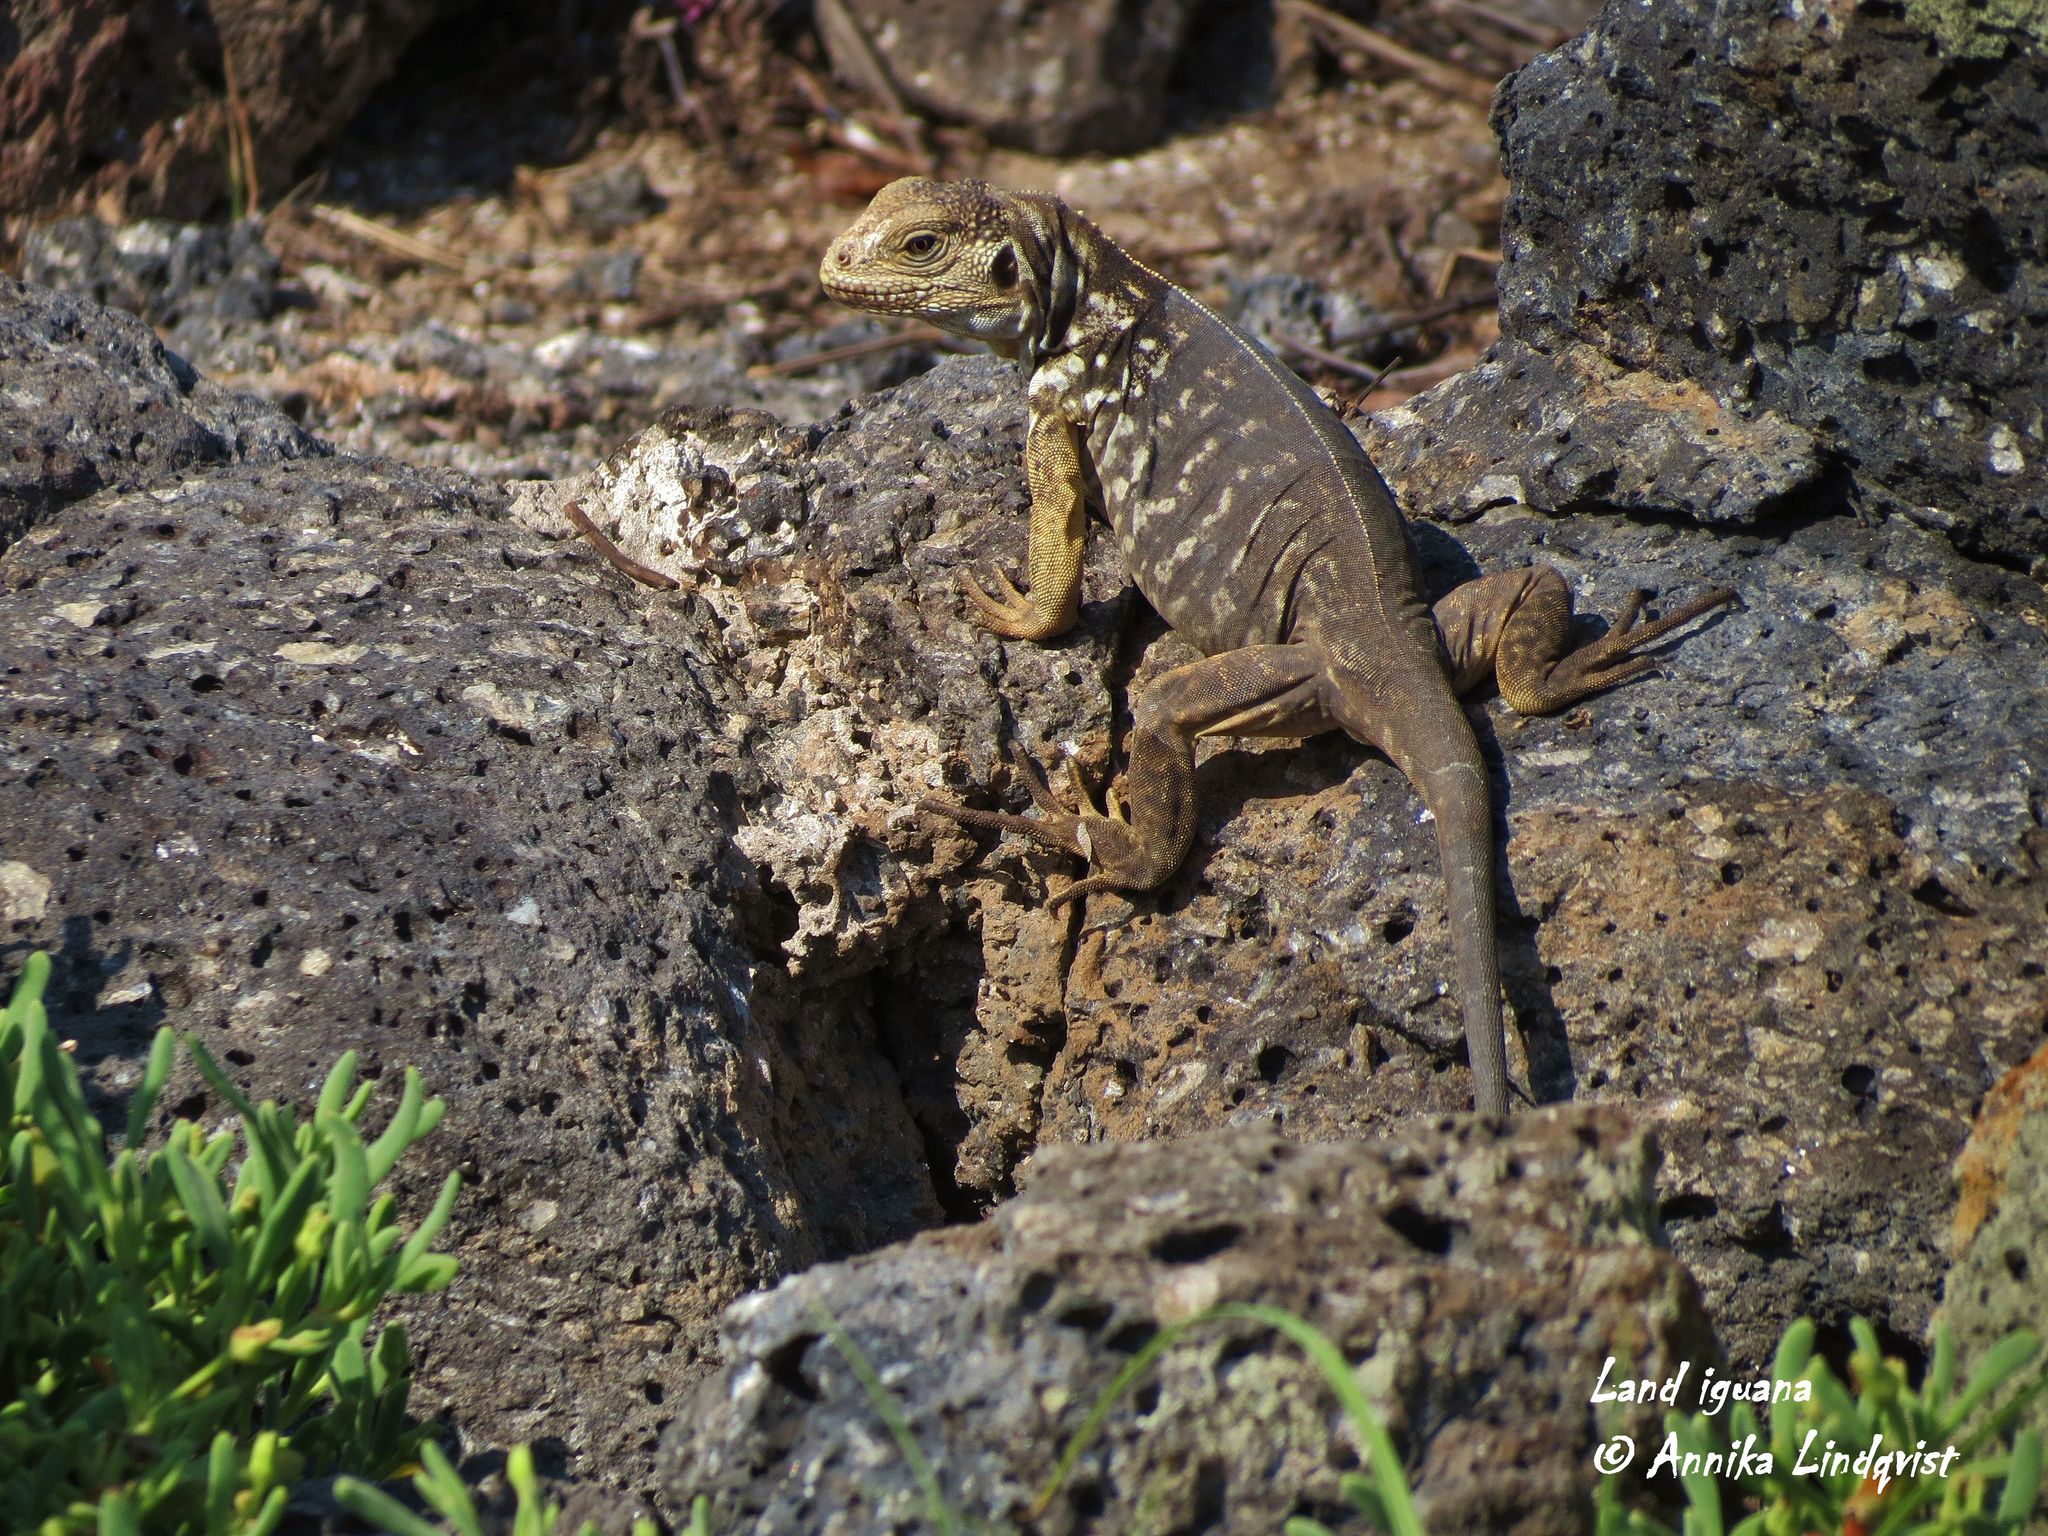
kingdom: Animalia
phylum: Chordata
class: Squamata
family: Iguanidae
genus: Conolophus
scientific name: Conolophus subcristatus
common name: Galapagos land iguana
